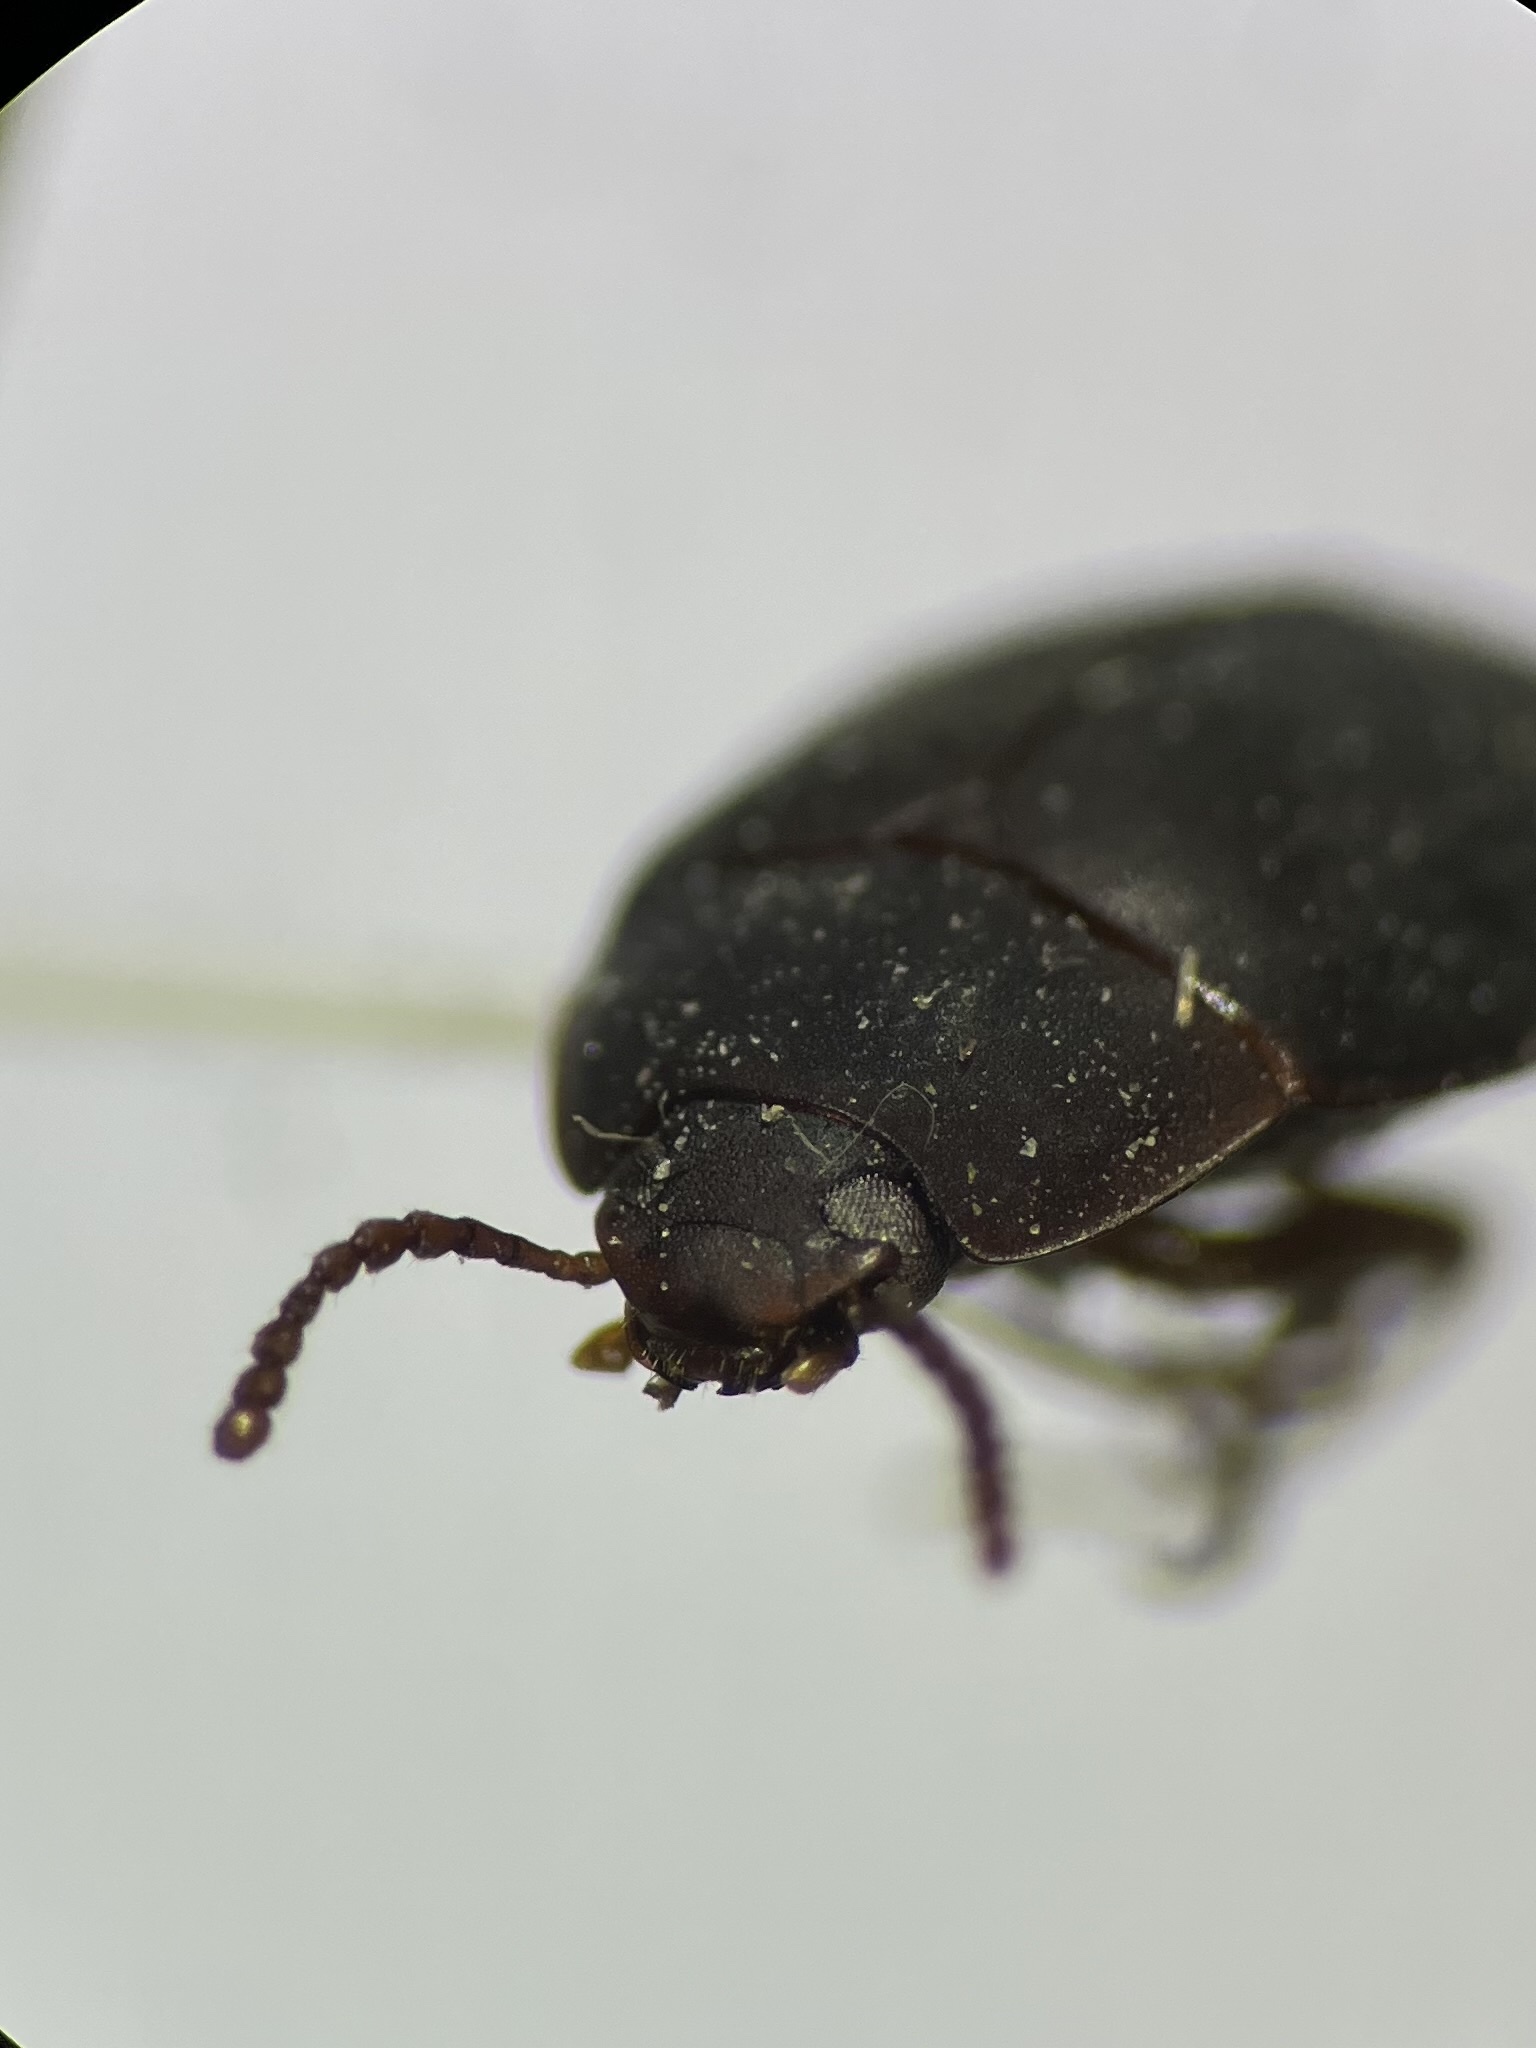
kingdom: Animalia
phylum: Arthropoda
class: Insecta
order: Coleoptera
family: Tenebrionidae
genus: Platydema
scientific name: Platydema ruficornis
